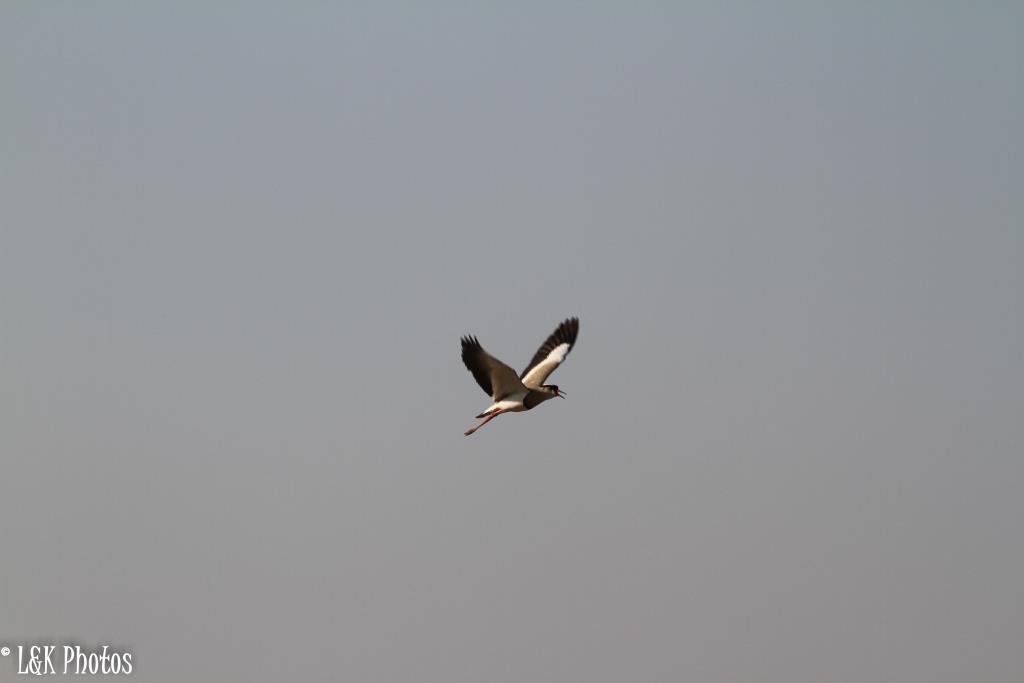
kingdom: Animalia
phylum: Chordata
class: Aves
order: Charadriiformes
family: Charadriidae
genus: Vanellus
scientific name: Vanellus coronatus
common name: Crowned lapwing
